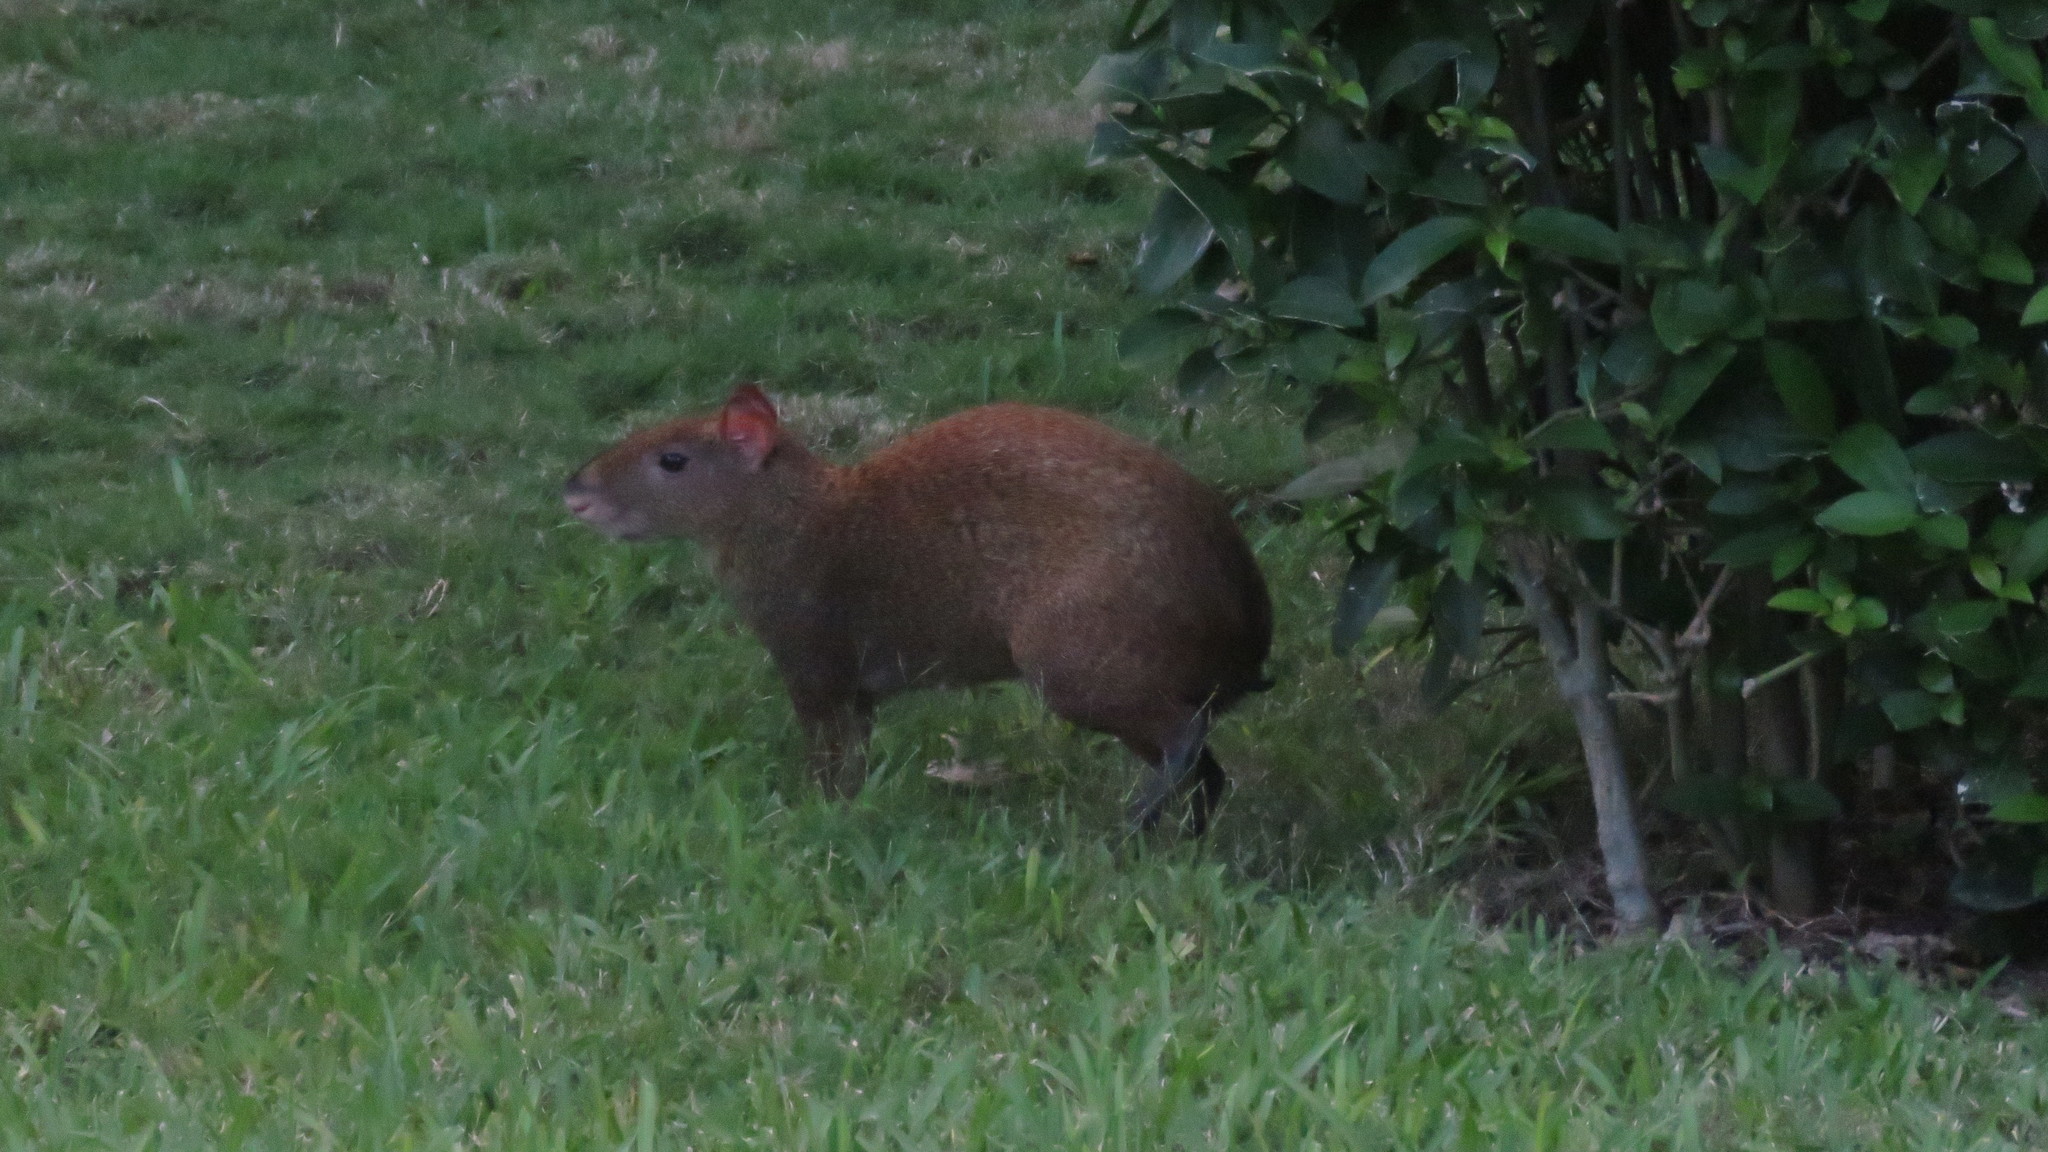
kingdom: Animalia
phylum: Chordata
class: Mammalia
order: Rodentia
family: Dasyproctidae
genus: Dasyprocta
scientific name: Dasyprocta punctata
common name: Central american agouti
